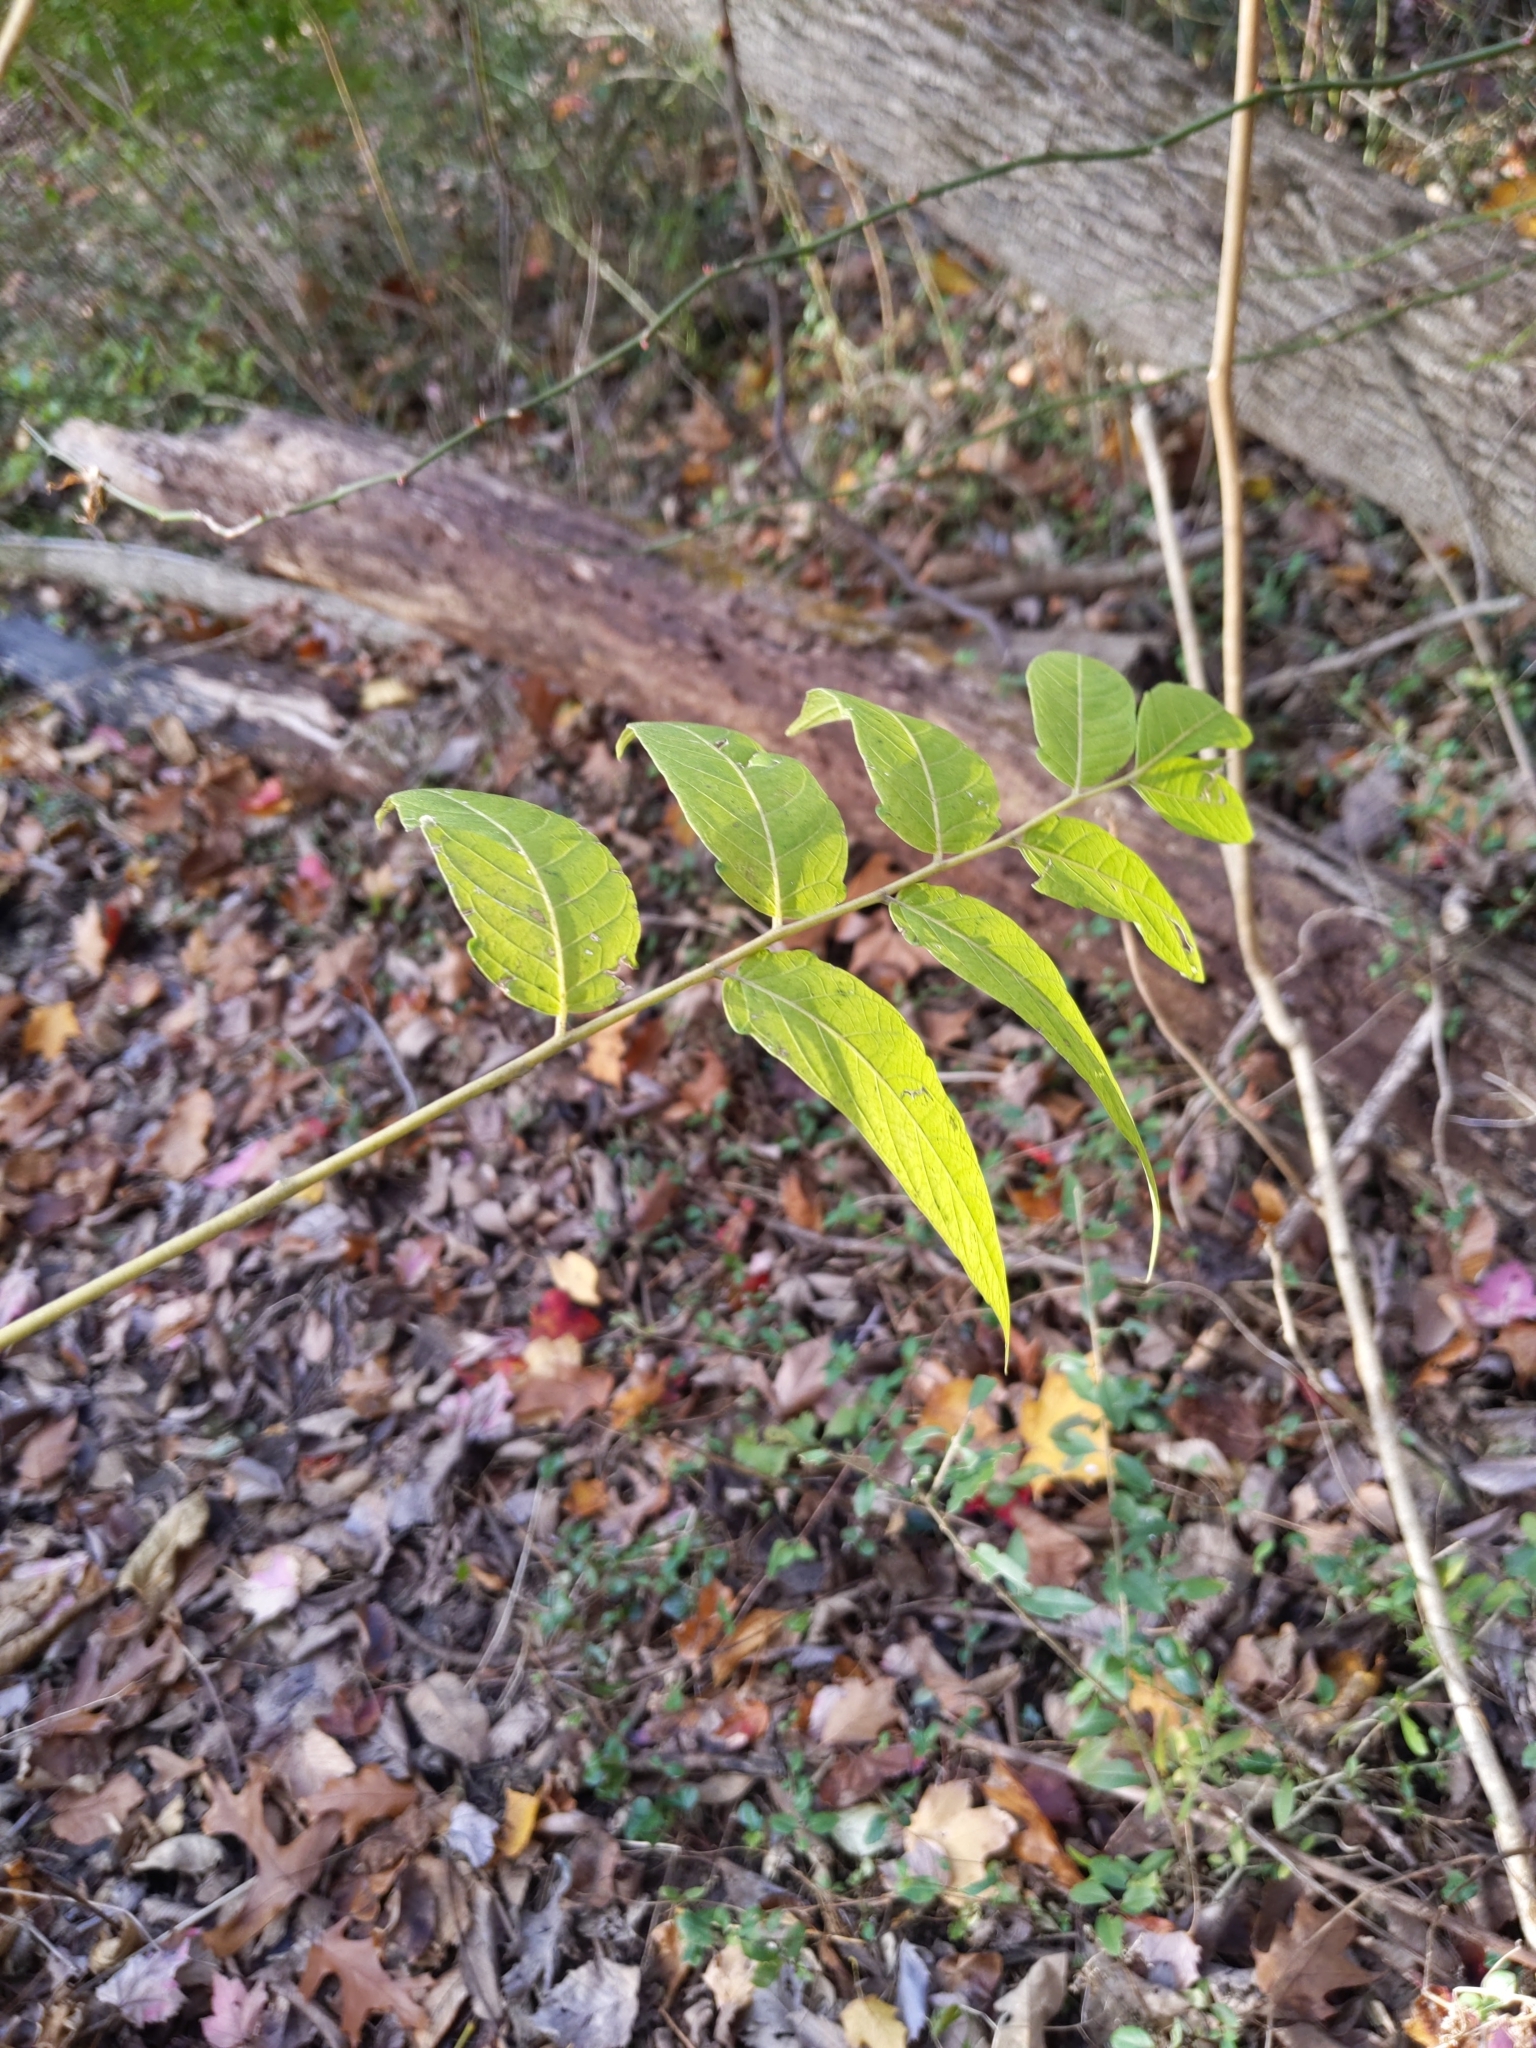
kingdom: Plantae
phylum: Tracheophyta
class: Magnoliopsida
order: Sapindales
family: Simaroubaceae
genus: Ailanthus
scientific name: Ailanthus altissima
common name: Tree-of-heaven
